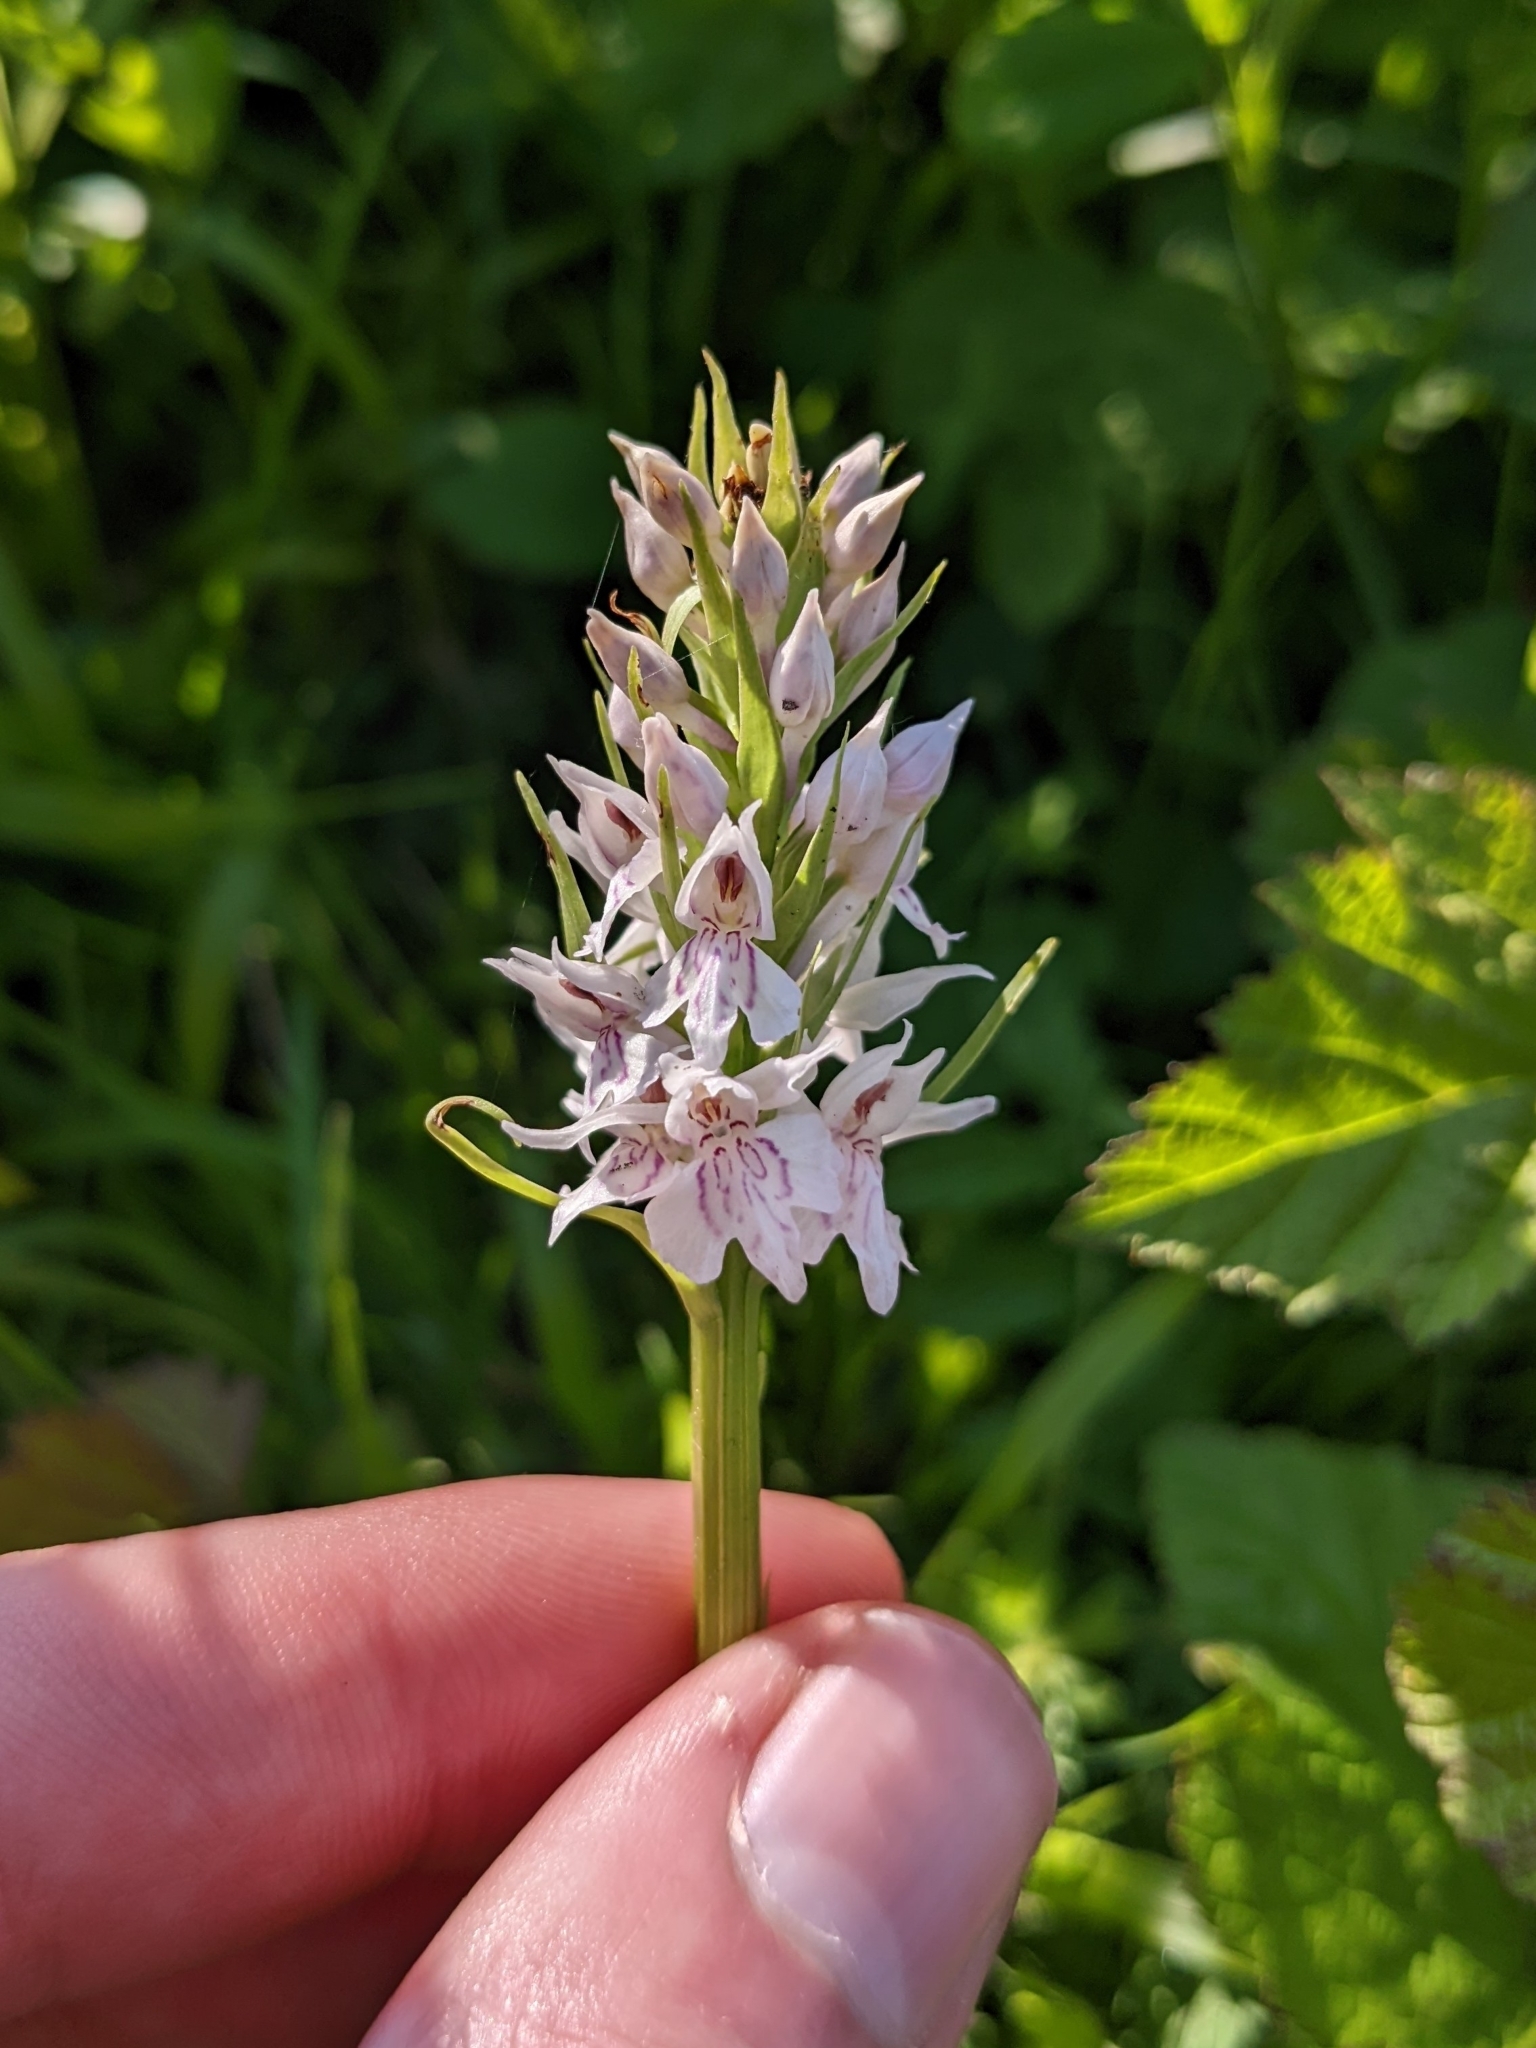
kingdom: Plantae
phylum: Tracheophyta
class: Liliopsida
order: Asparagales
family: Orchidaceae
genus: Dactylorhiza
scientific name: Dactylorhiza maculata
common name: Heath spotted-orchid
